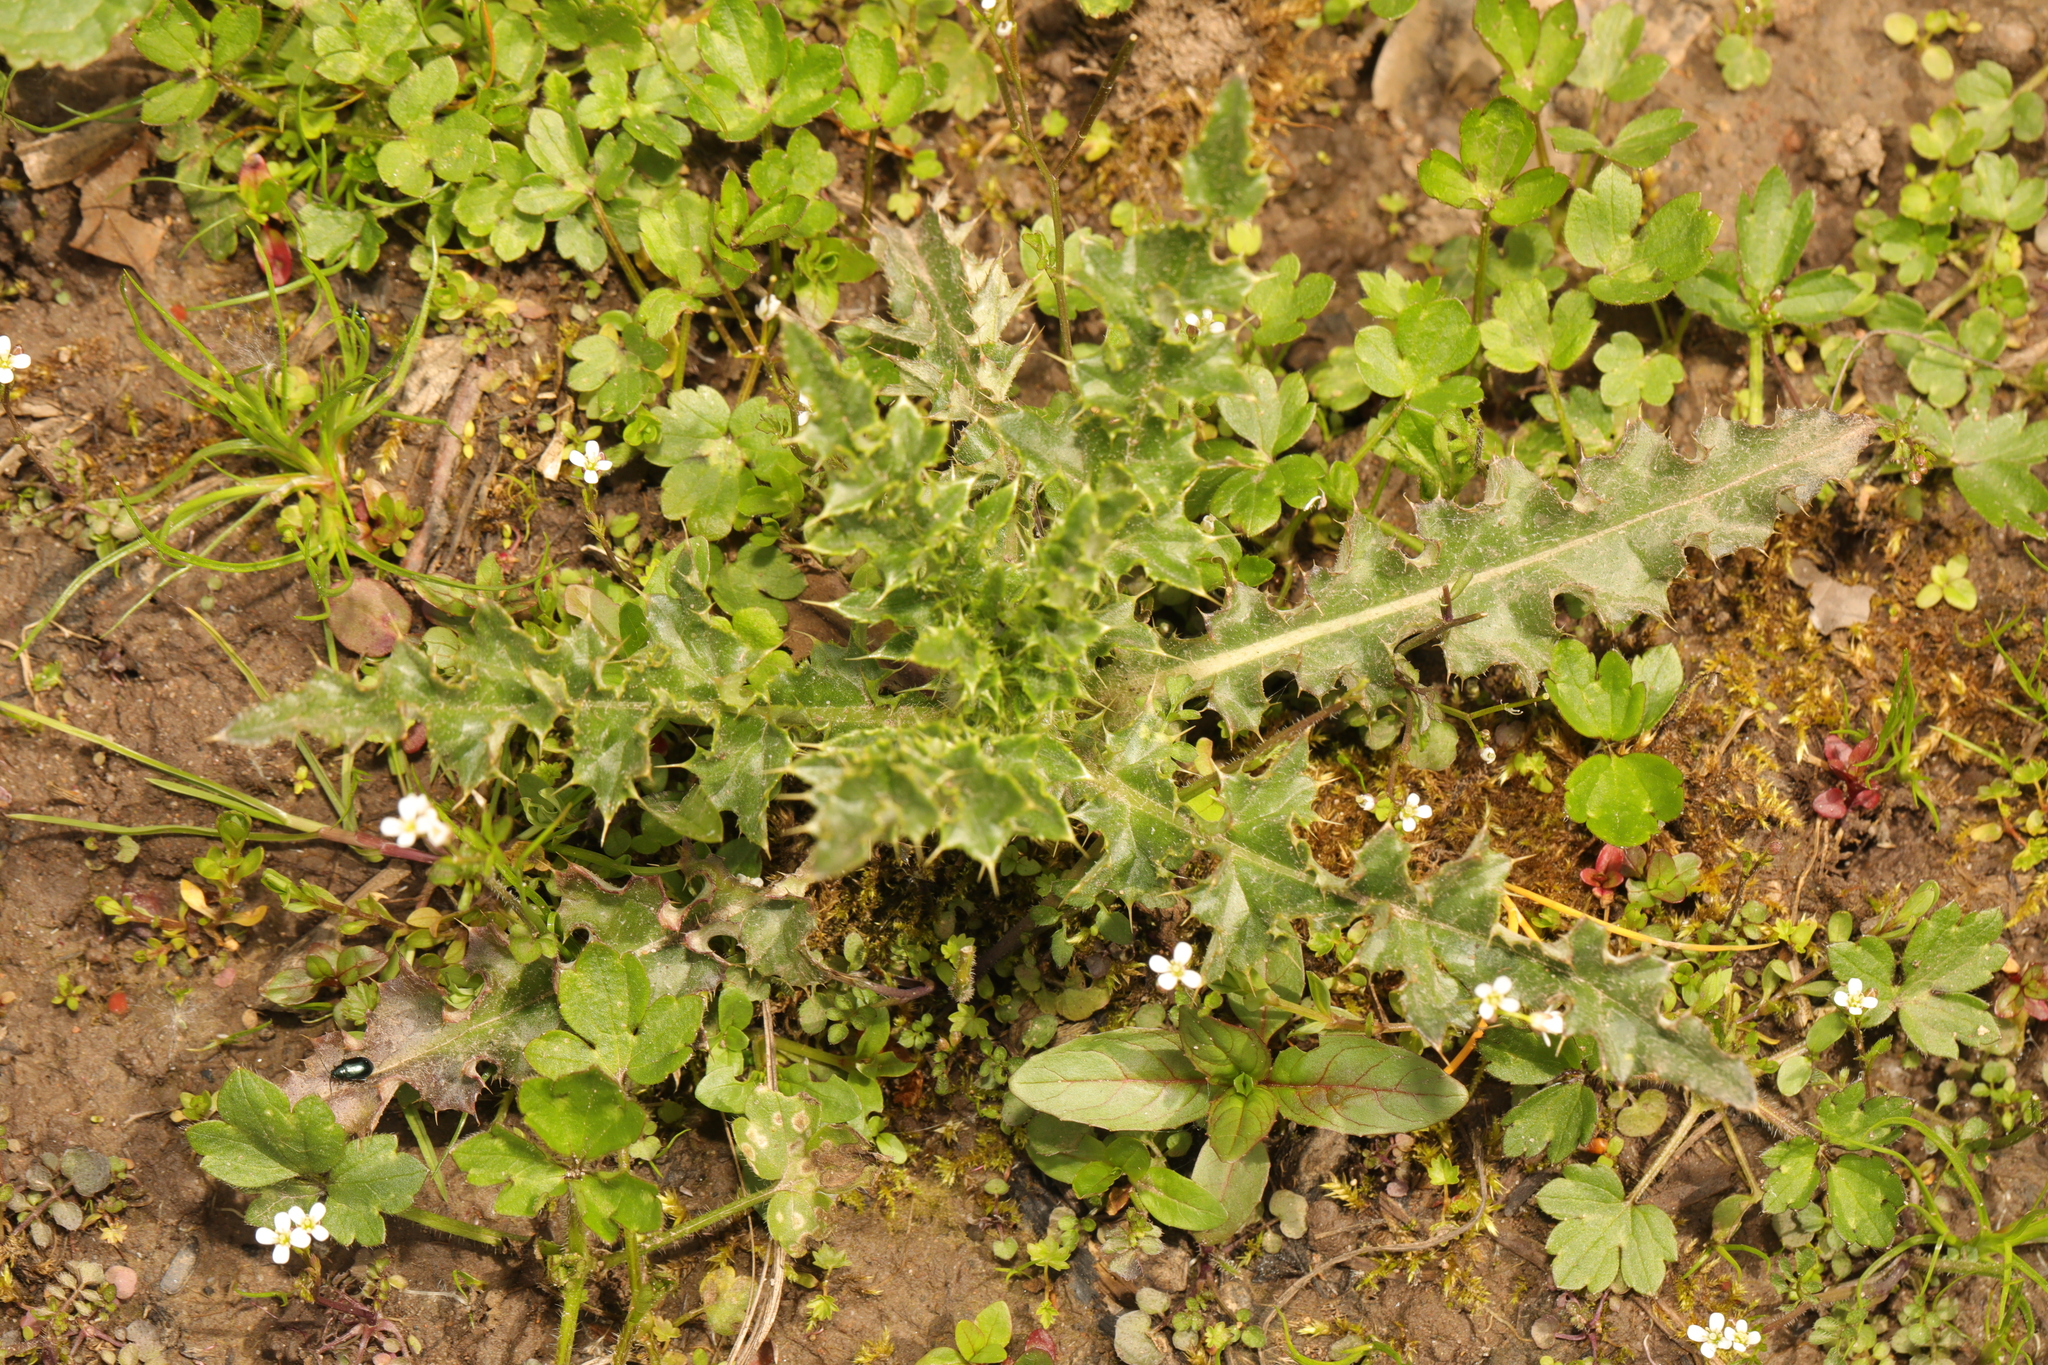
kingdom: Plantae
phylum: Tracheophyta
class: Magnoliopsida
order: Asterales
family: Asteraceae
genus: Cirsium
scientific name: Cirsium arvense
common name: Creeping thistle
